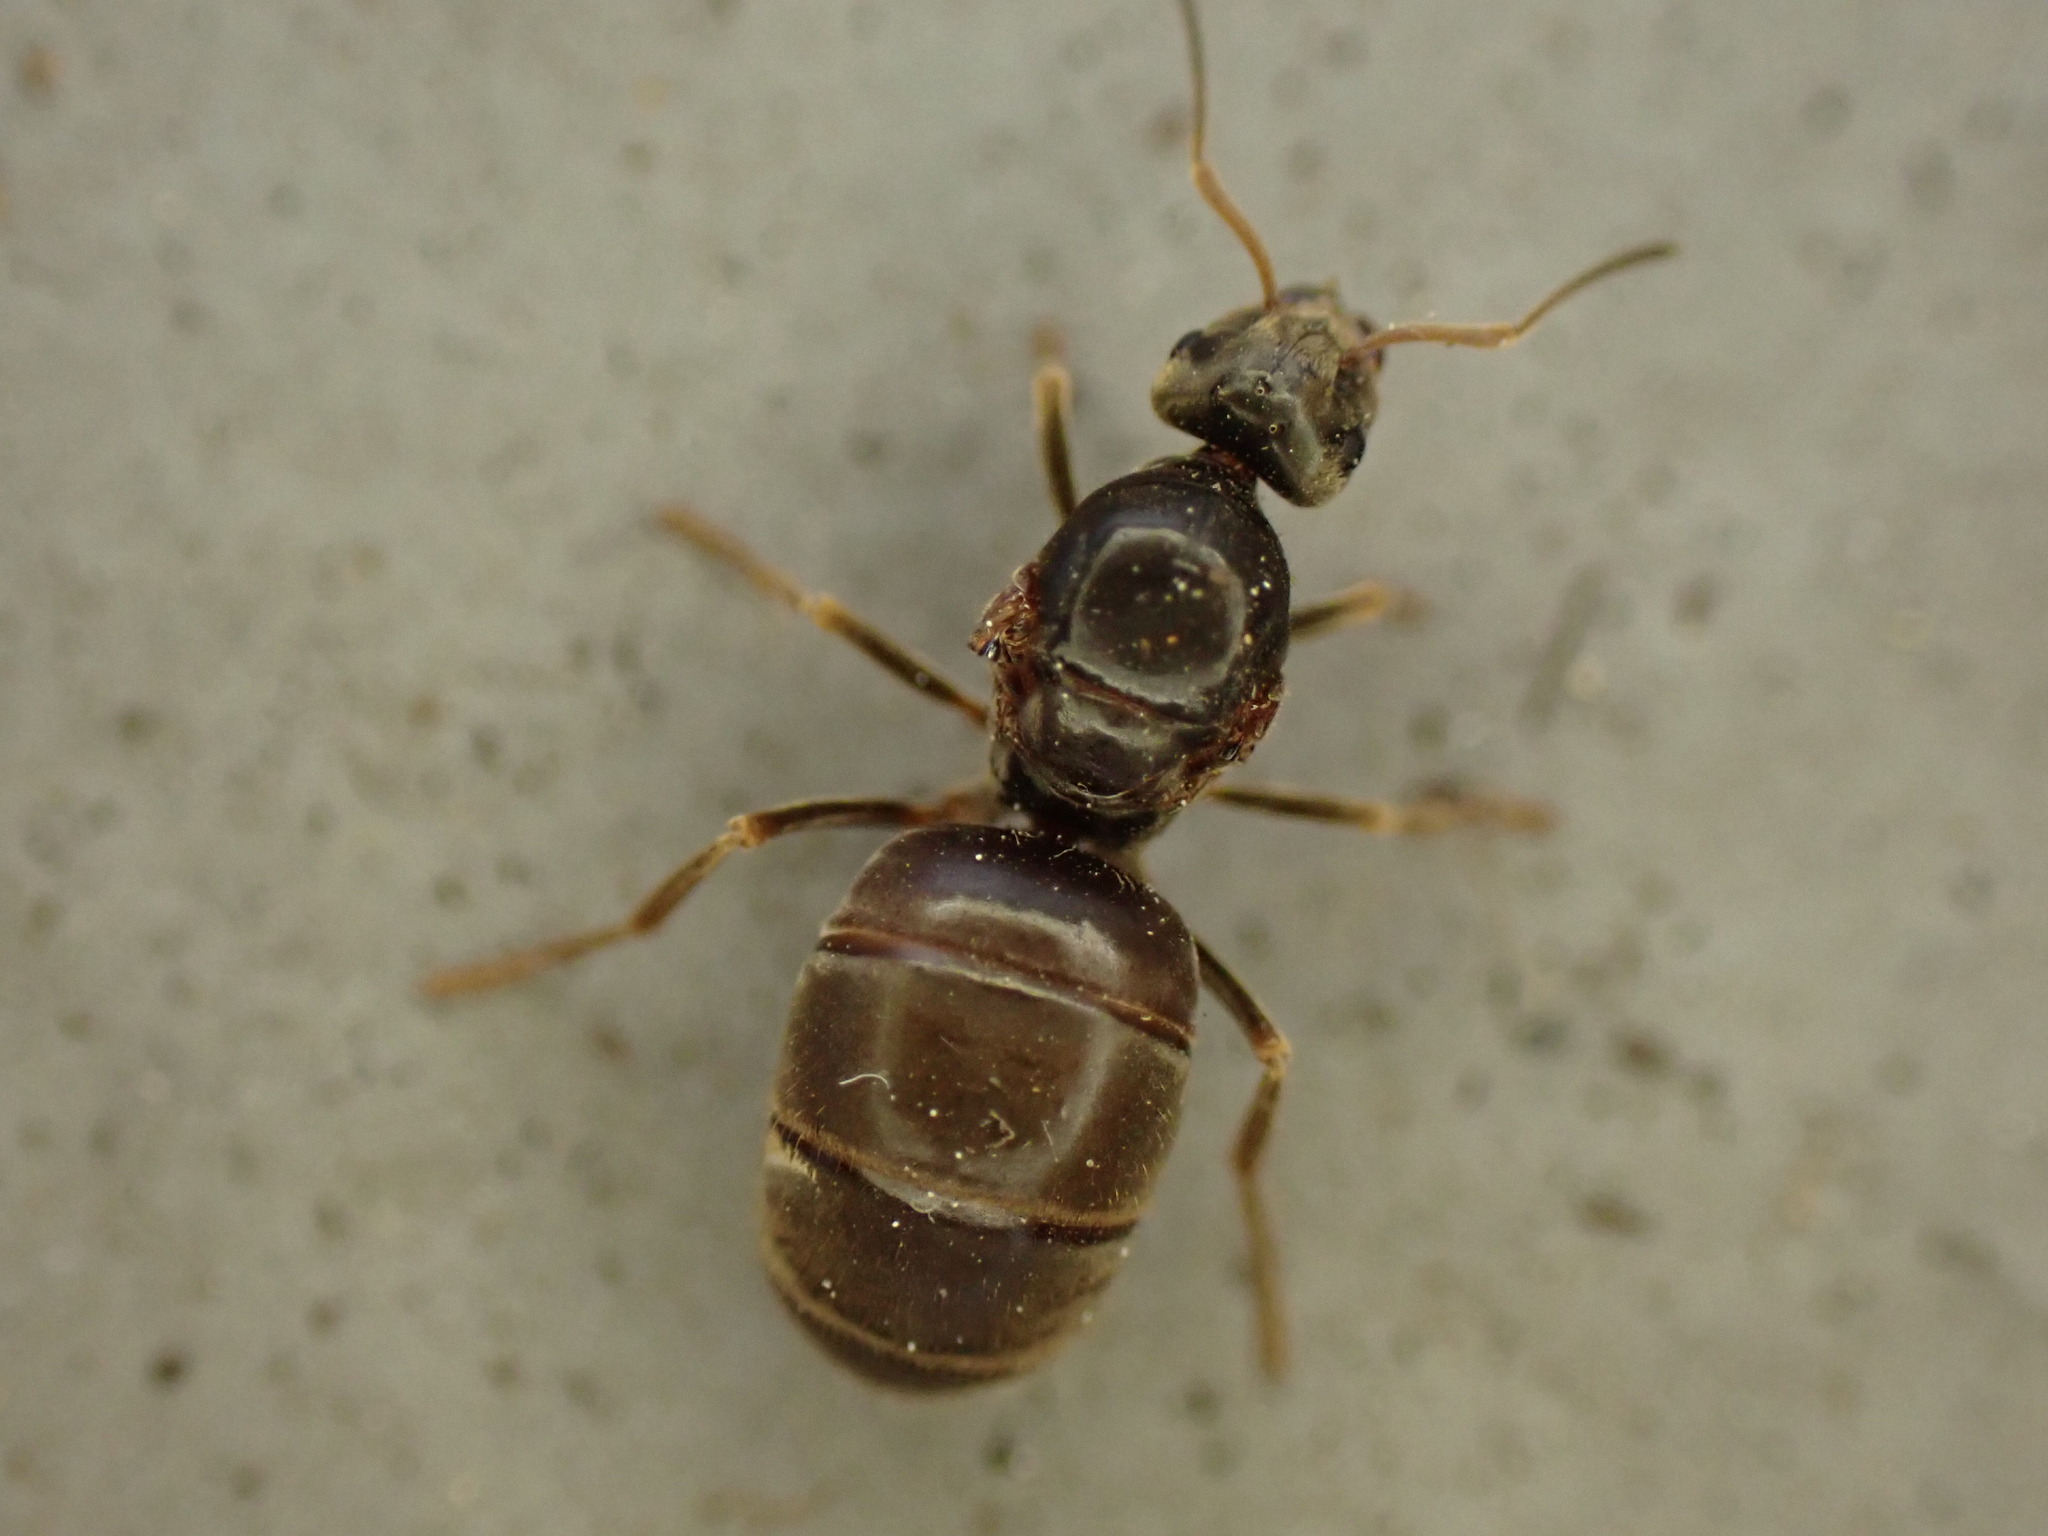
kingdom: Animalia
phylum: Arthropoda
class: Insecta
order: Hymenoptera
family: Formicidae
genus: Lasius
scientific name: Lasius
